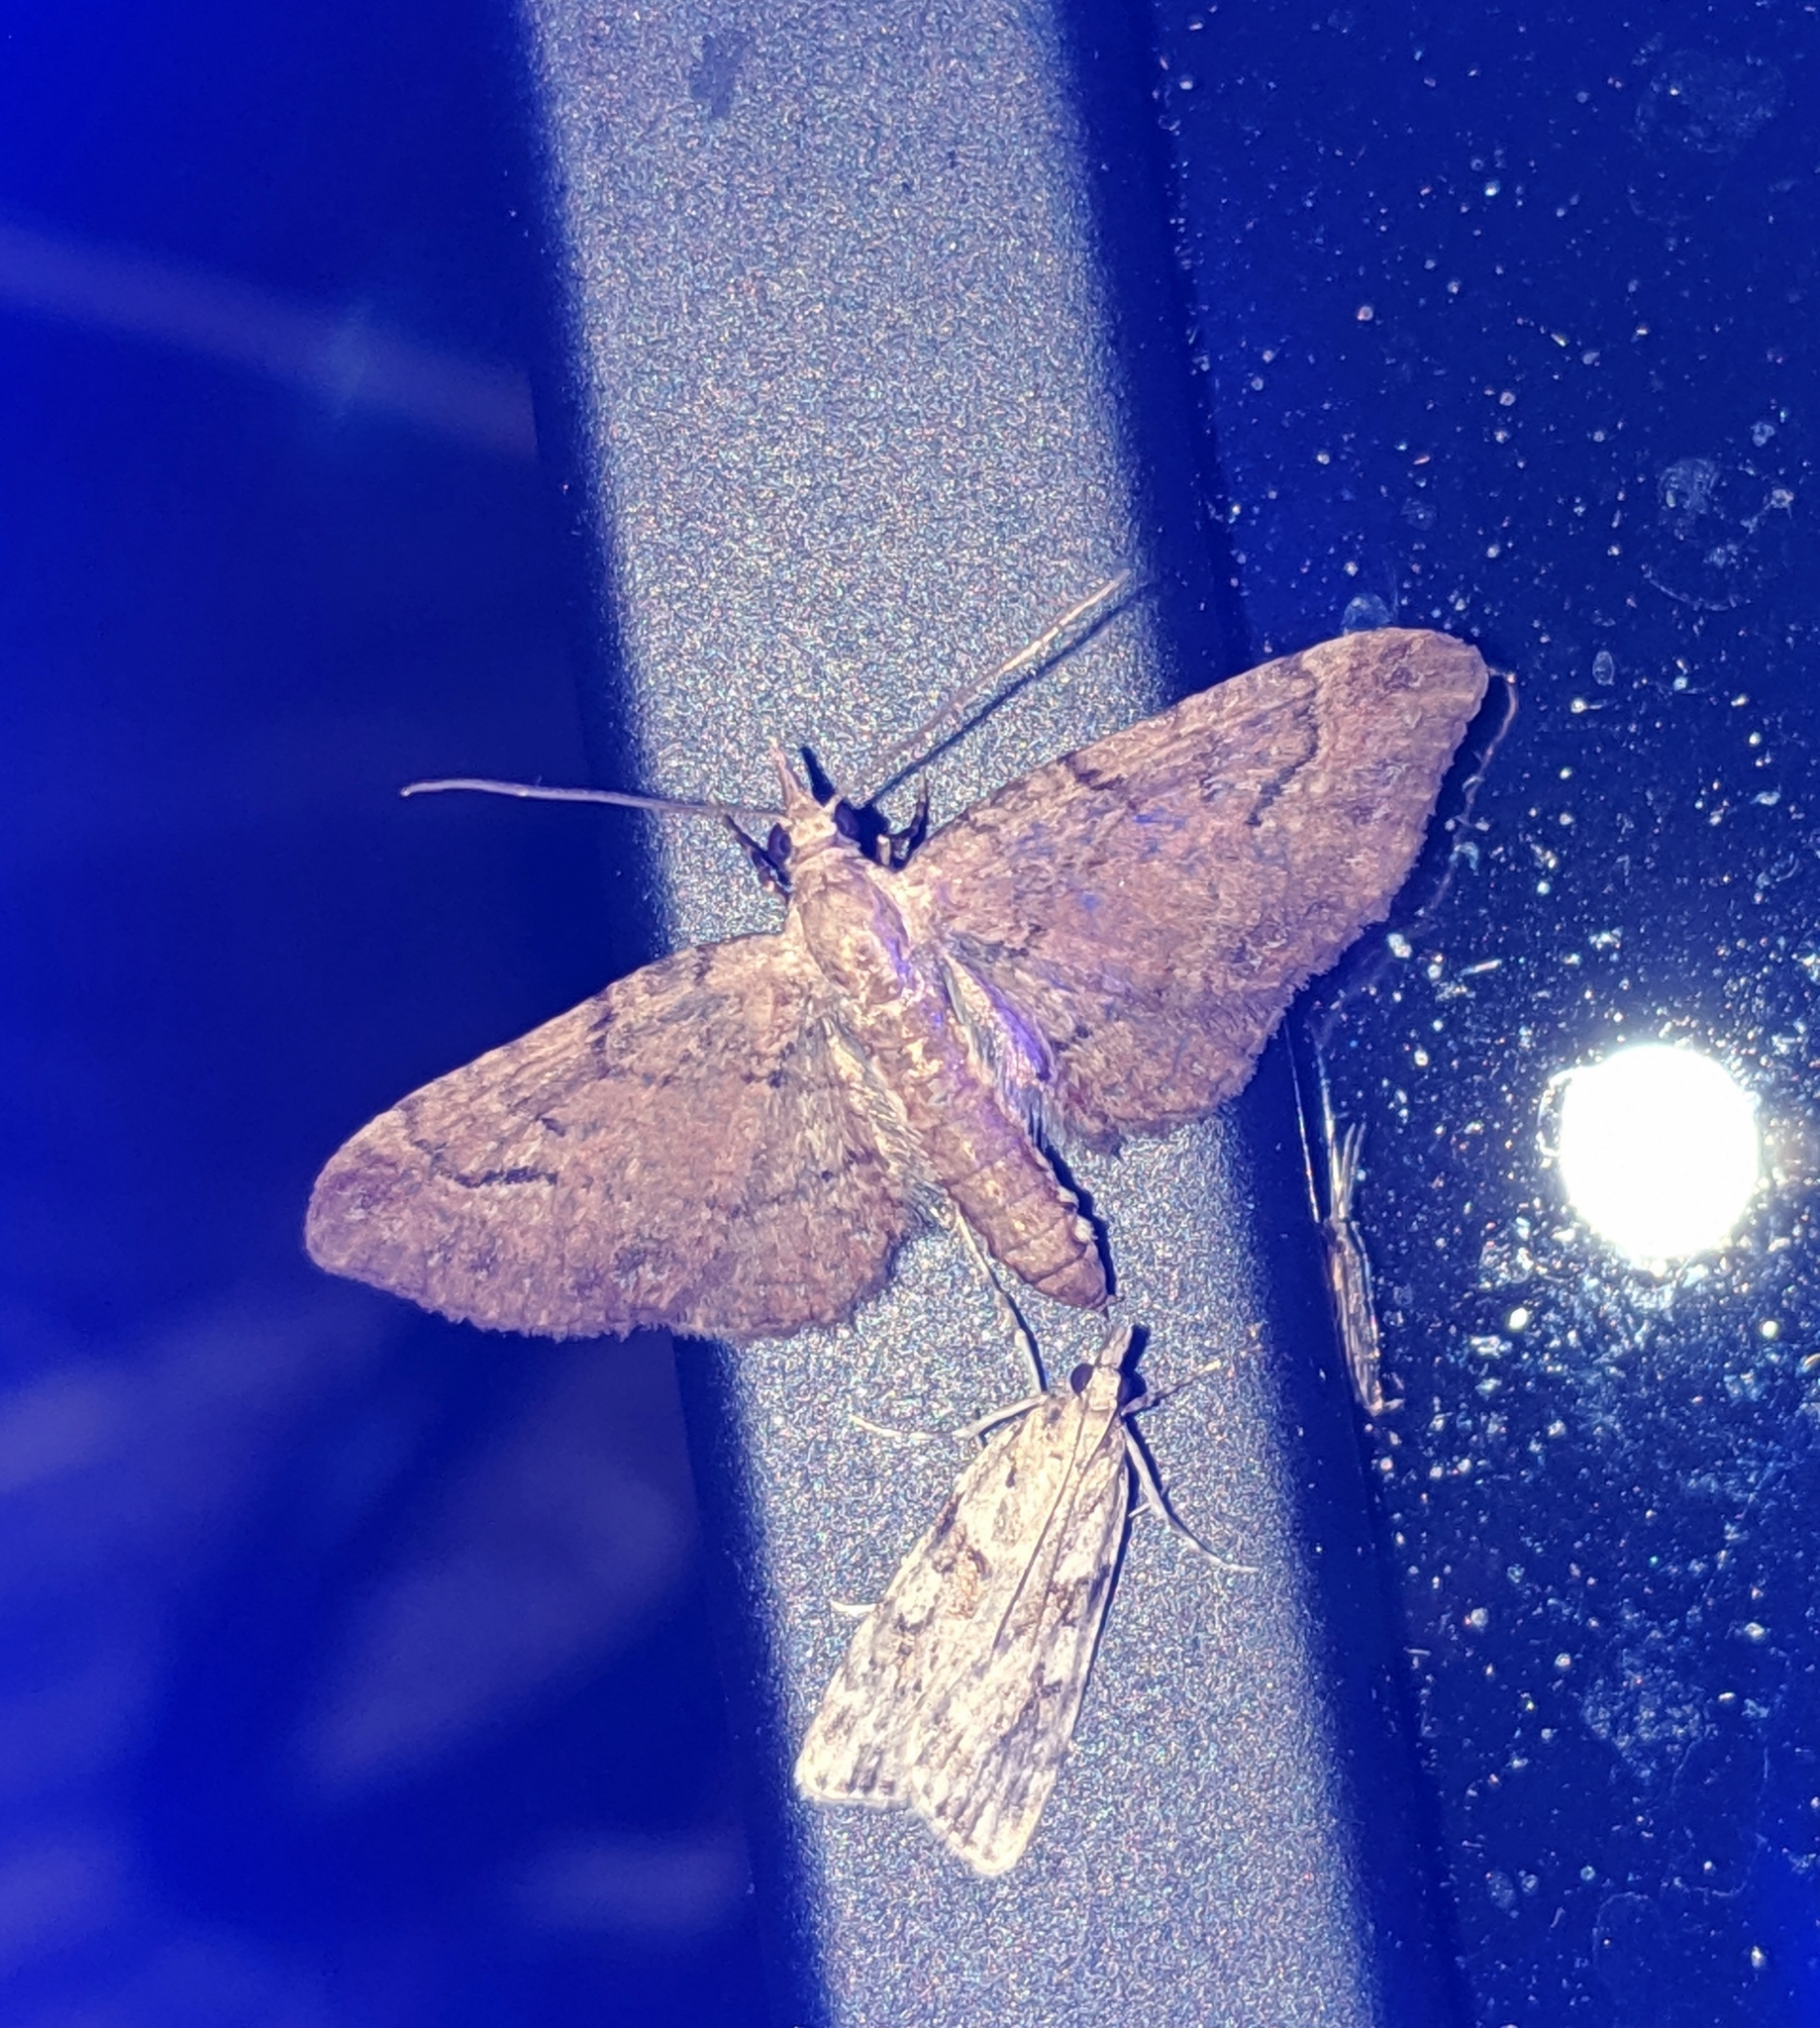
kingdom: Animalia
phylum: Arthropoda
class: Insecta
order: Lepidoptera
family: Geometridae
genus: Eupithecia
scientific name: Eupithecia unicolor
